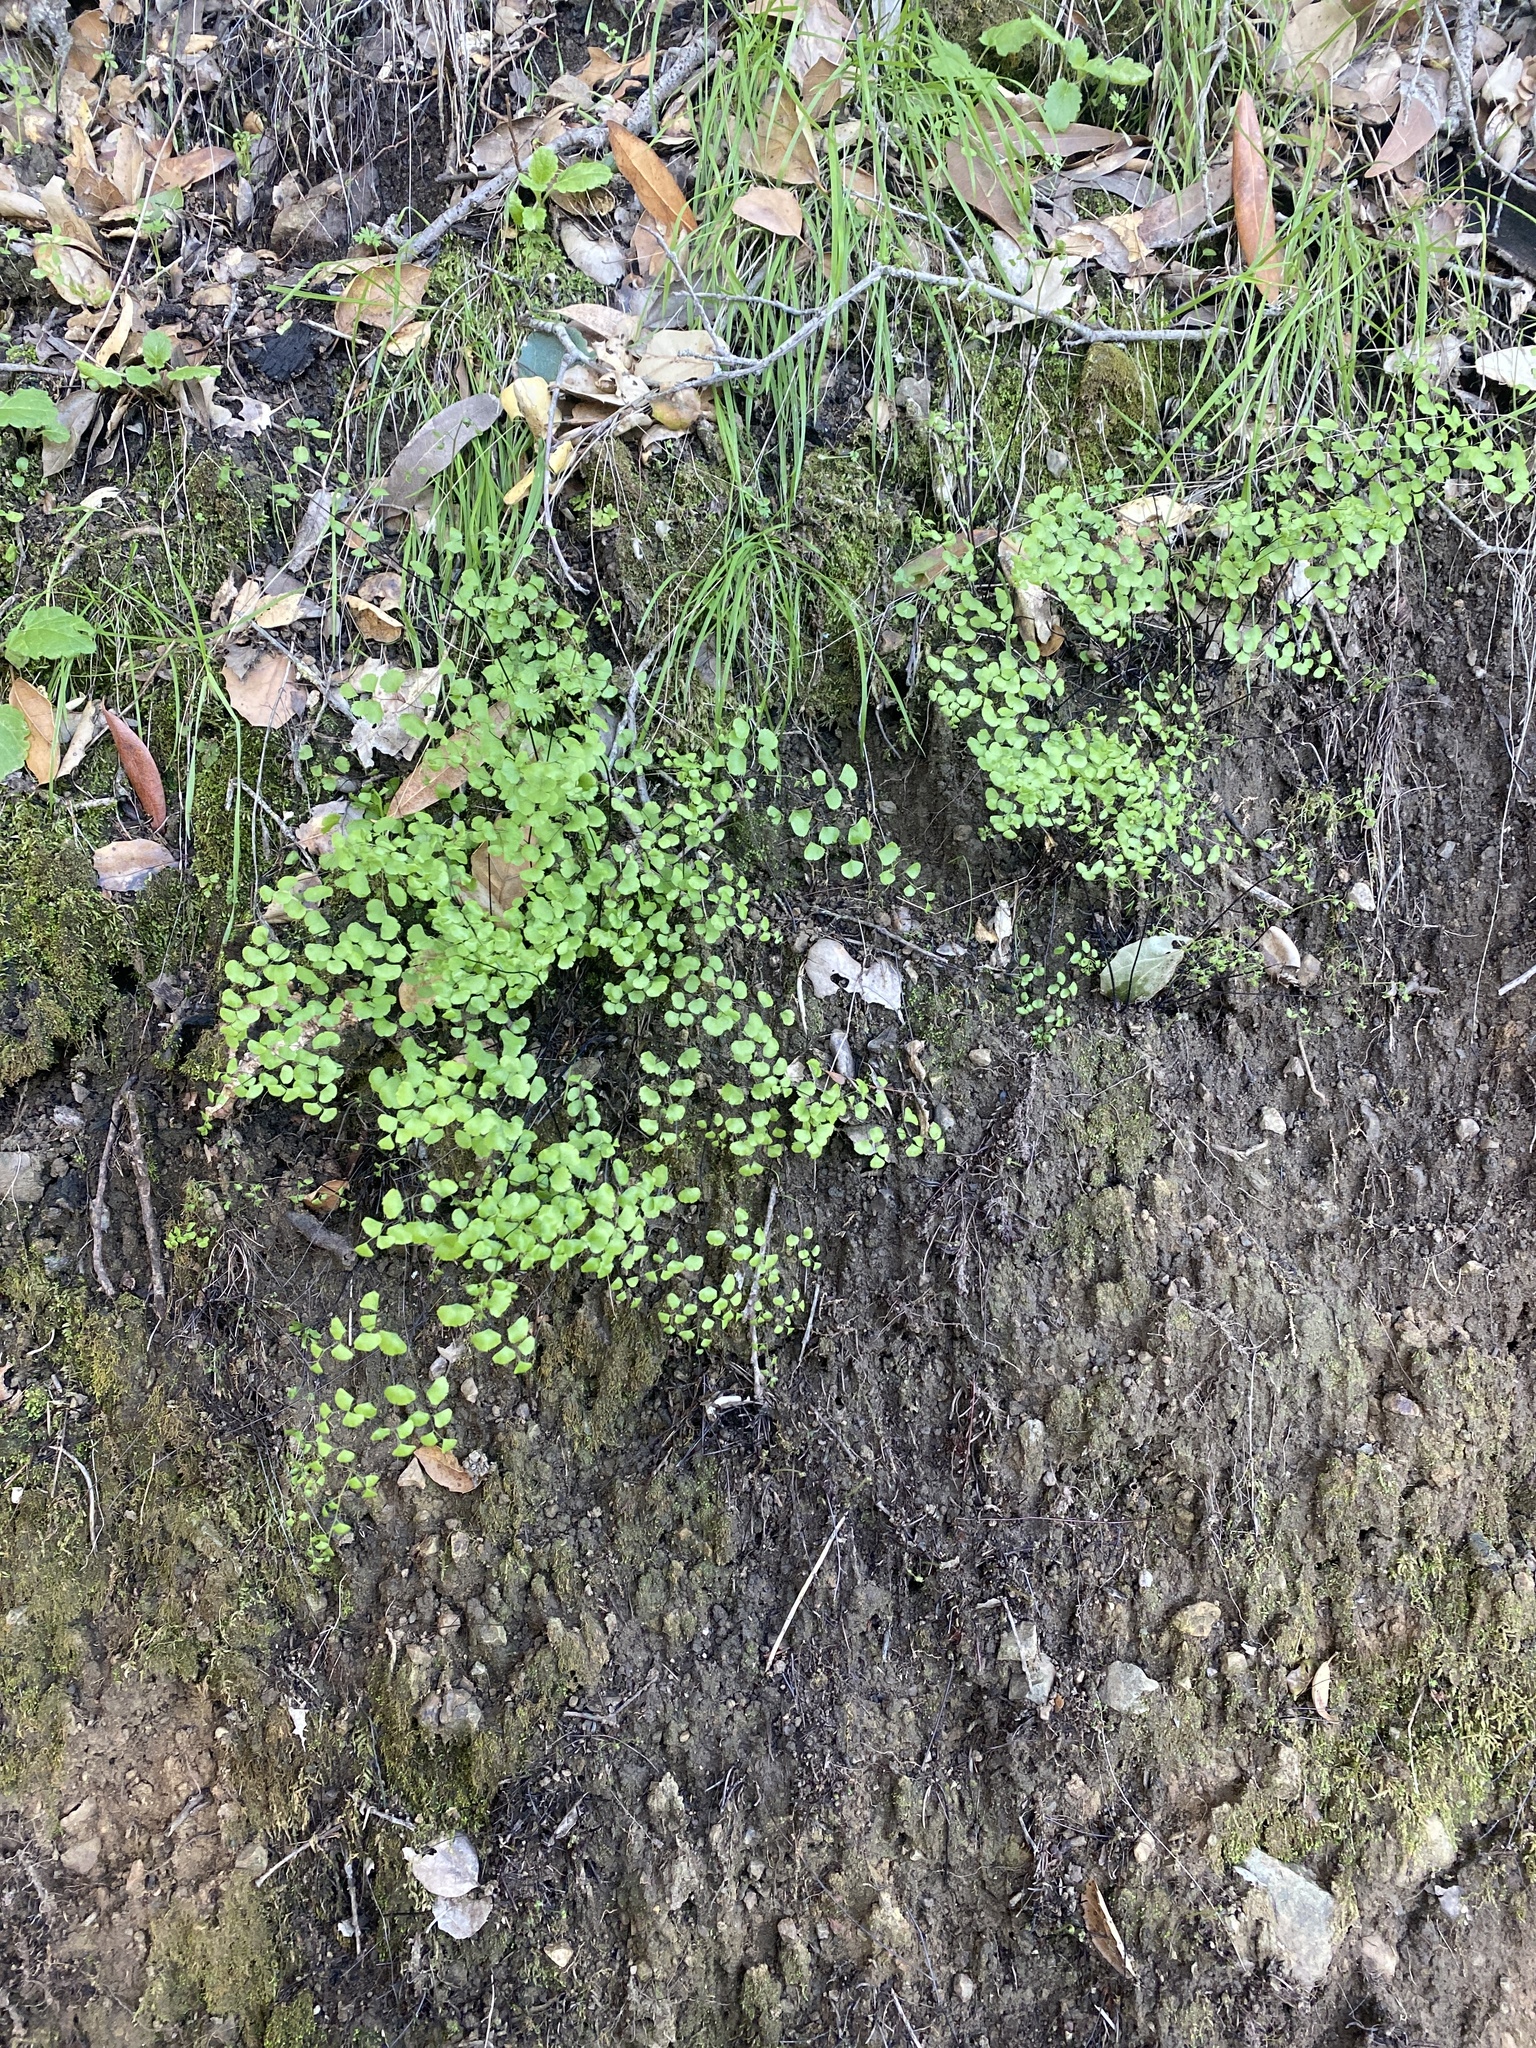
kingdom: Plantae
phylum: Tracheophyta
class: Polypodiopsida
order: Polypodiales
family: Pteridaceae
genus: Adiantum
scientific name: Adiantum jordanii
